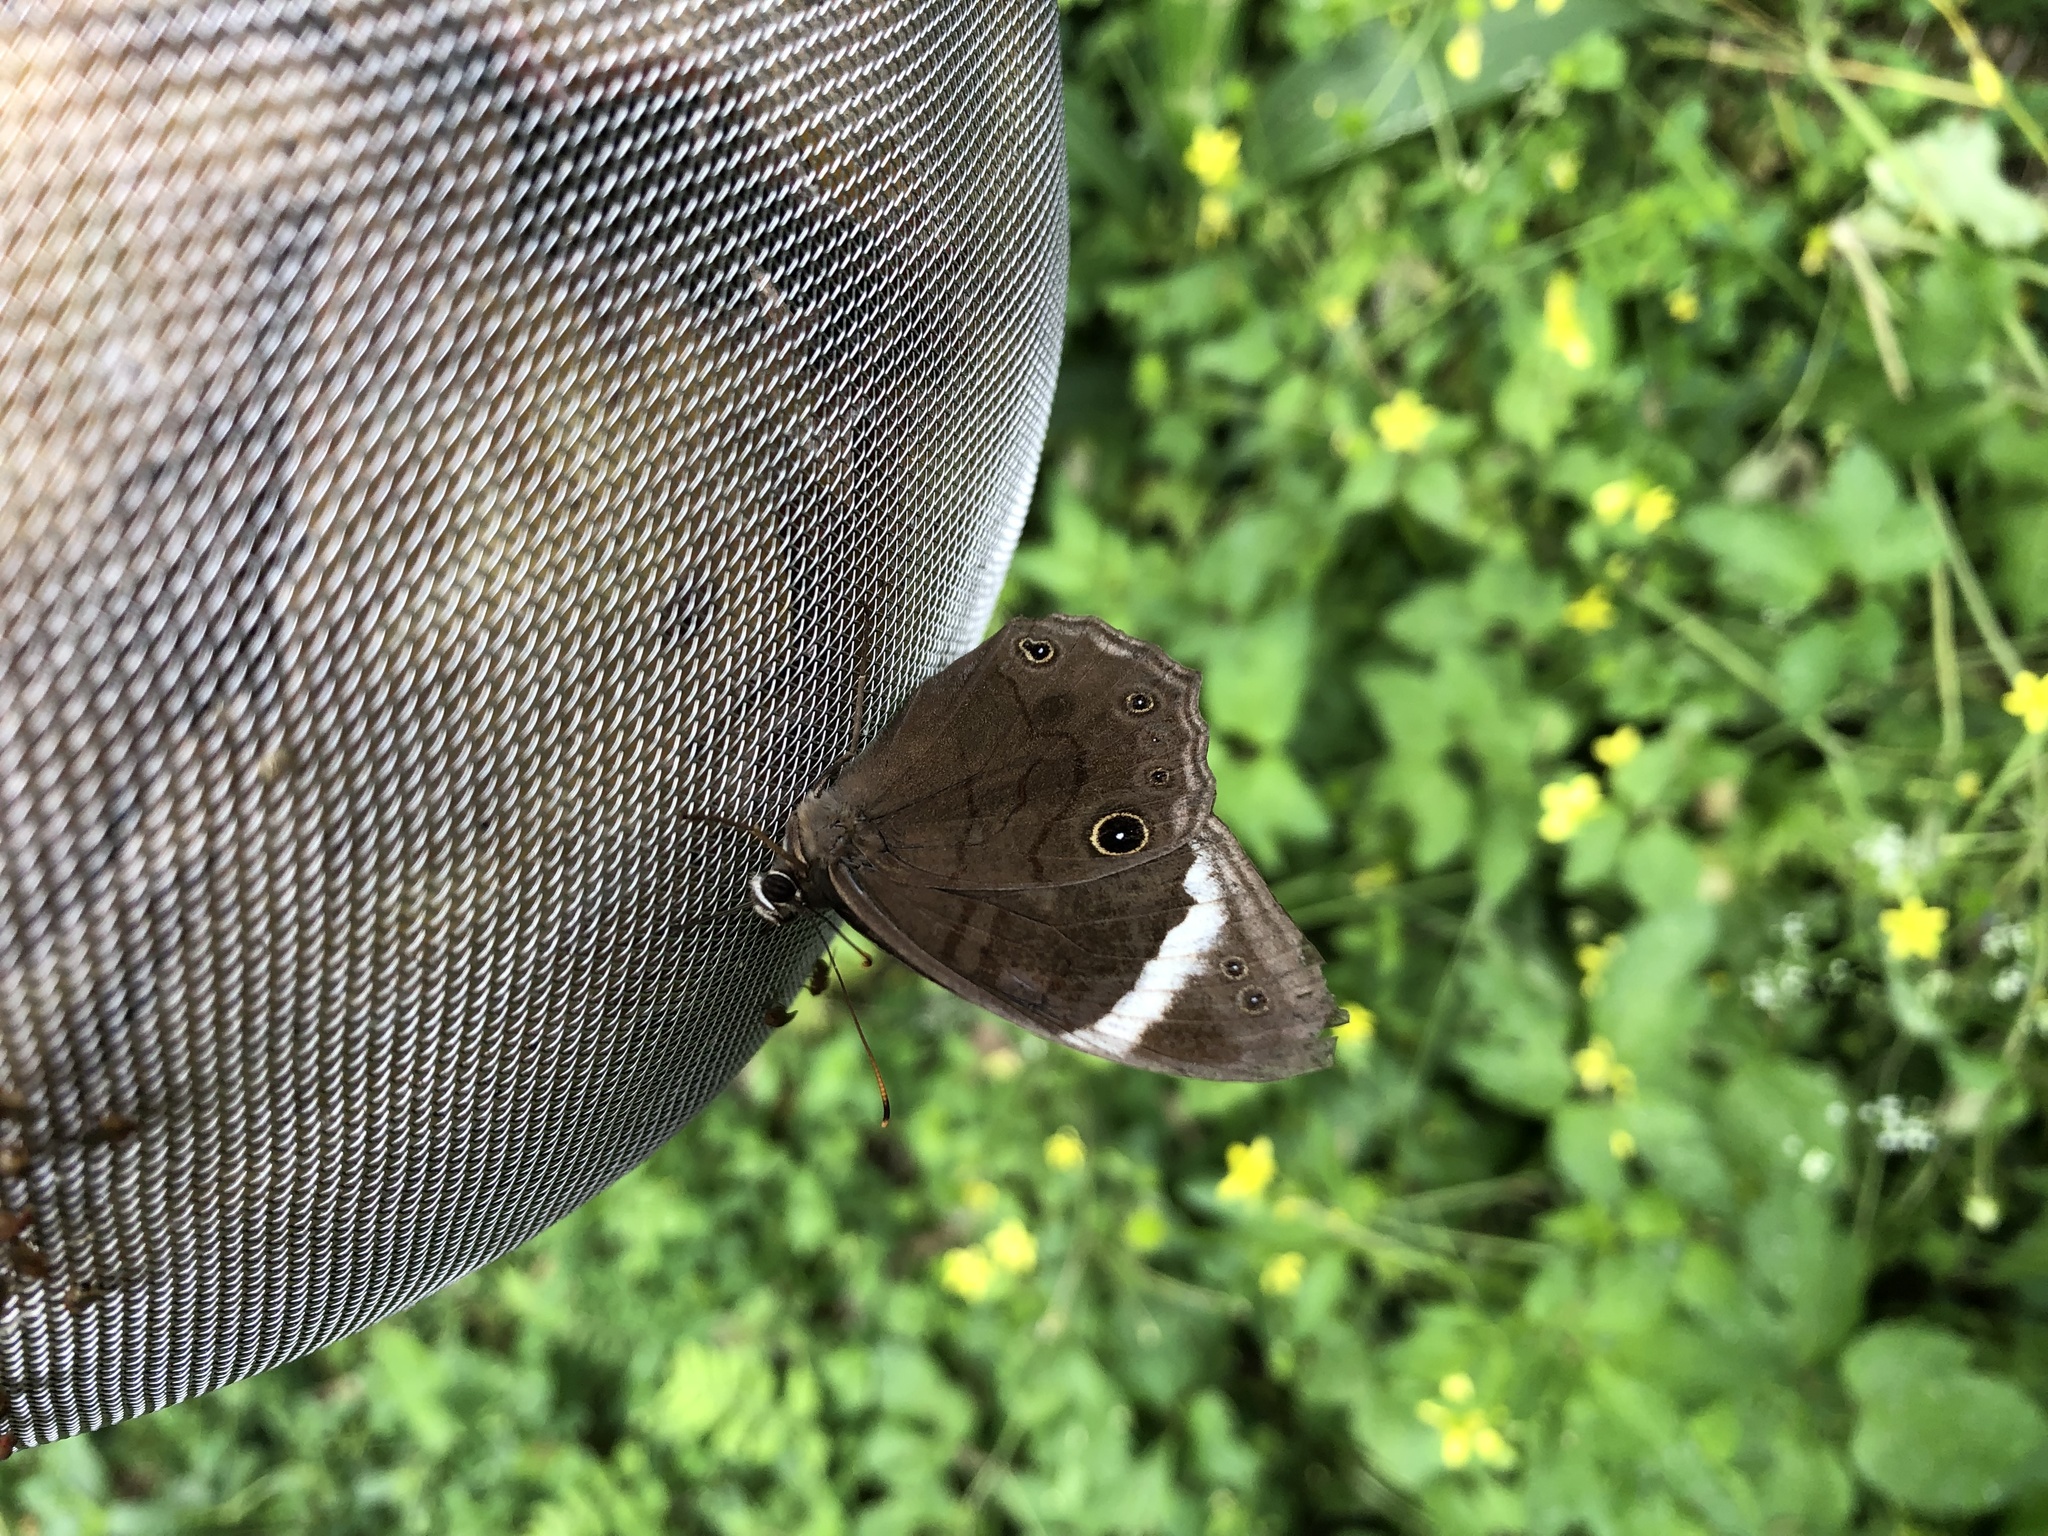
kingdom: Animalia
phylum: Arthropoda
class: Insecta
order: Lepidoptera
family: Nymphalidae
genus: Lethe
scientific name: Lethe verma
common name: Straight-banded treebrown
